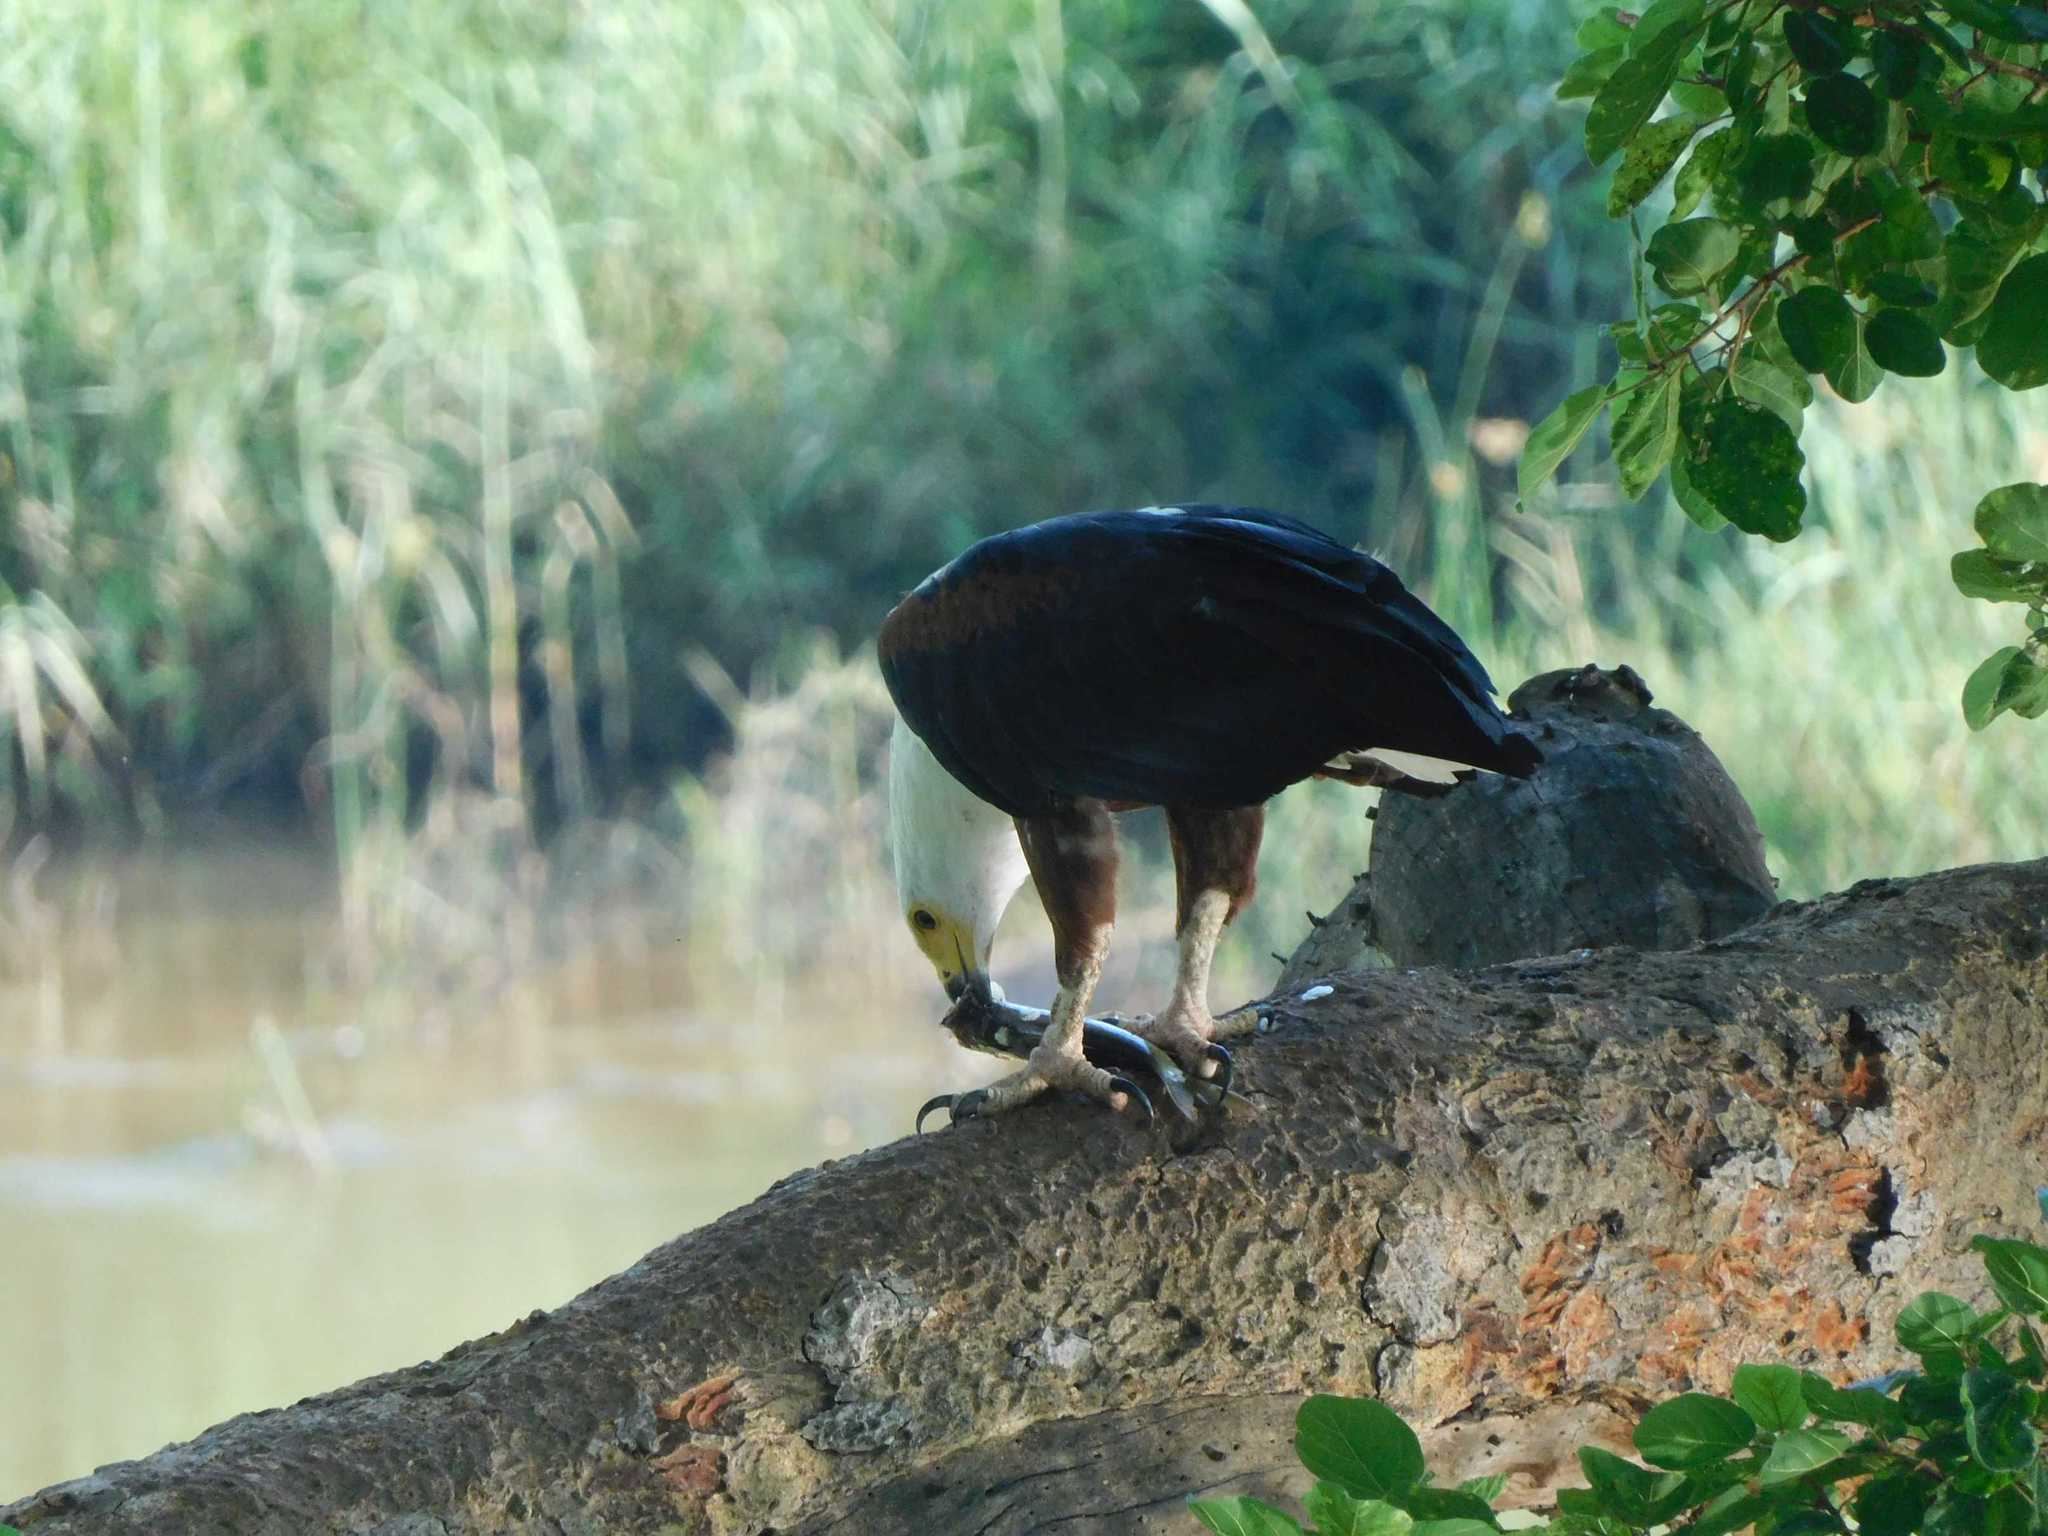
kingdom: Animalia
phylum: Chordata
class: Aves
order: Accipitriformes
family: Accipitridae
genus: Haliaeetus
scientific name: Haliaeetus vocifer
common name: African fish eagle
